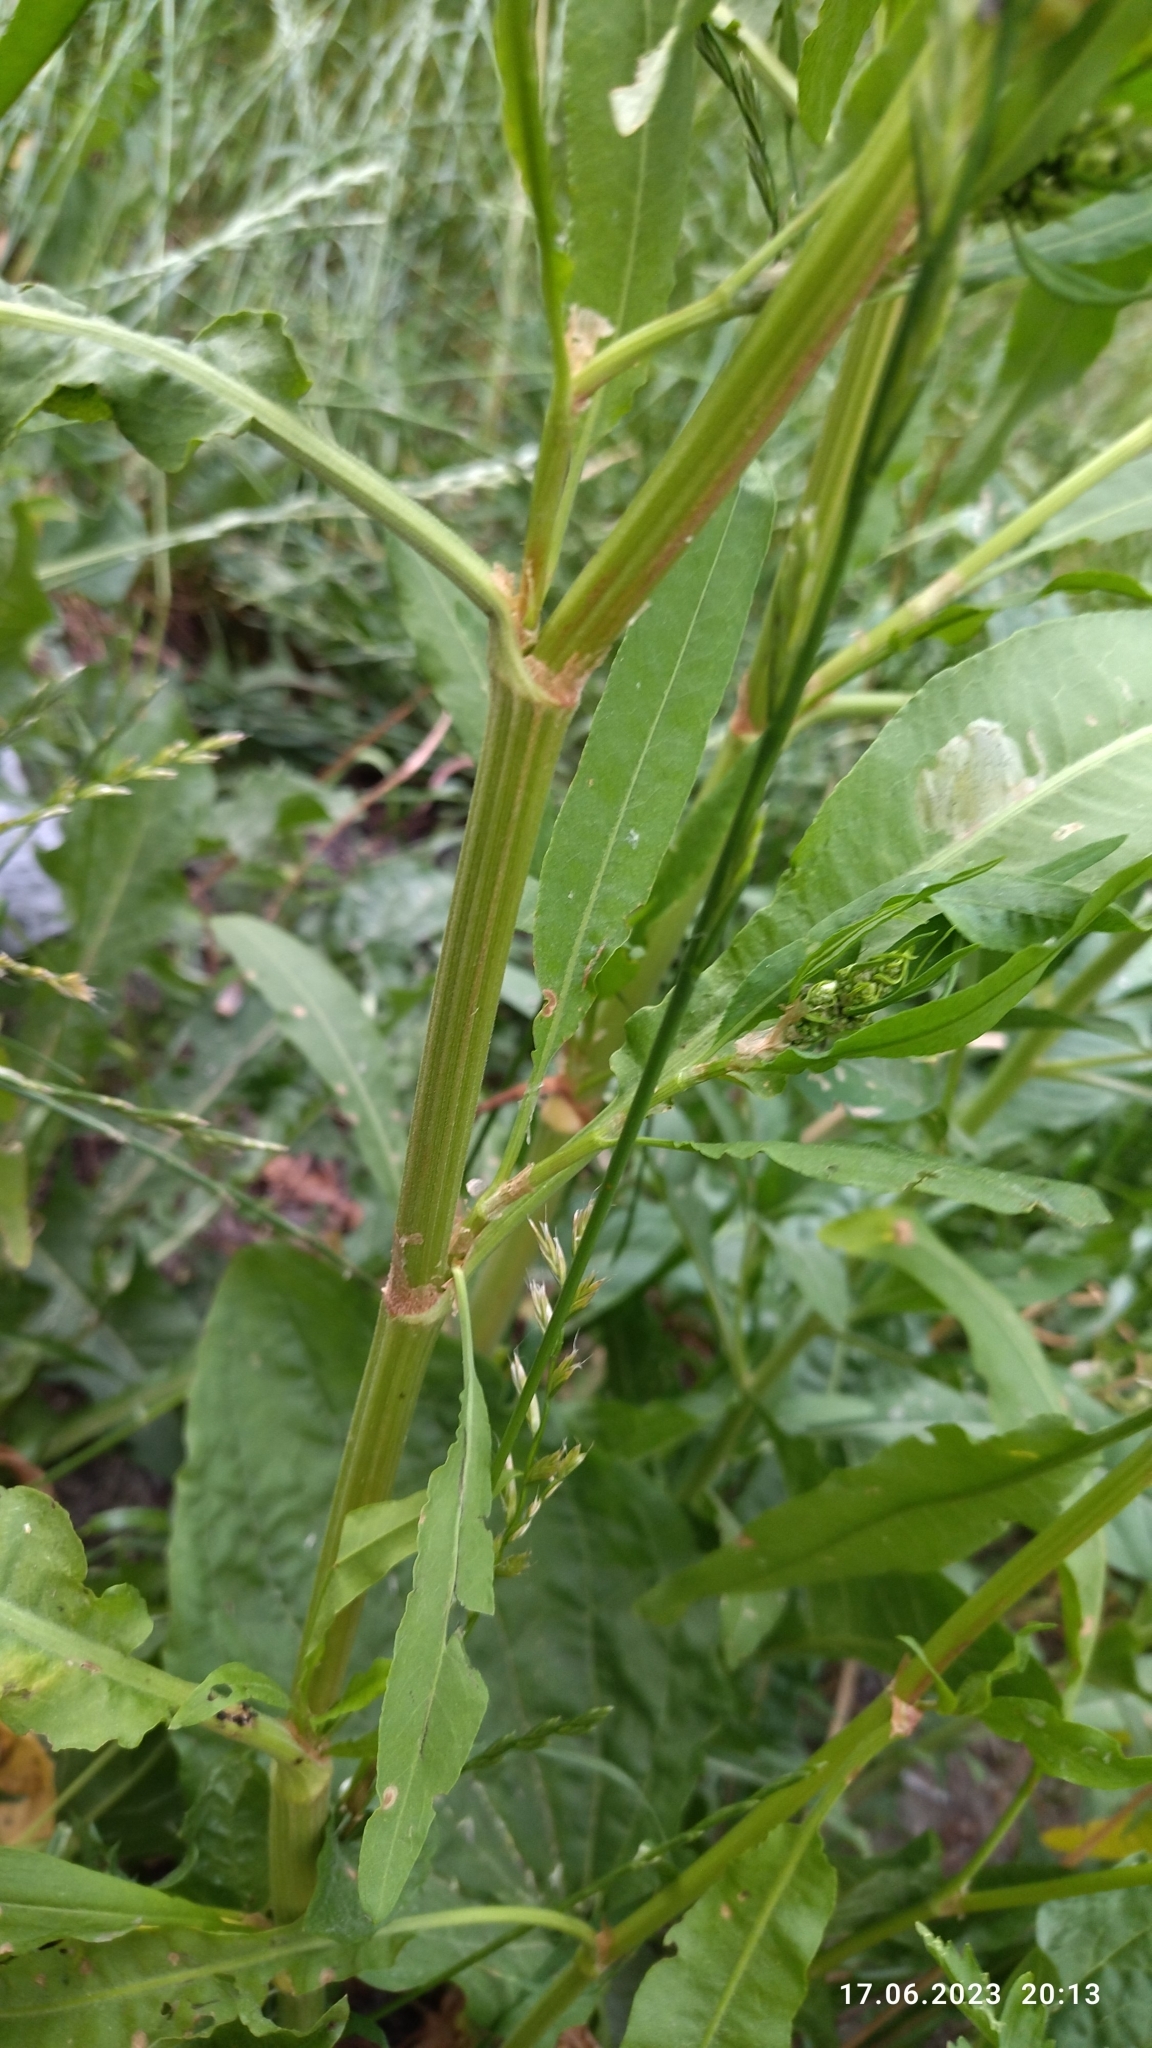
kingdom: Plantae
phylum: Tracheophyta
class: Magnoliopsida
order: Caryophyllales
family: Polygonaceae
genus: Rumex
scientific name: Rumex maritimus
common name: Golden dock
